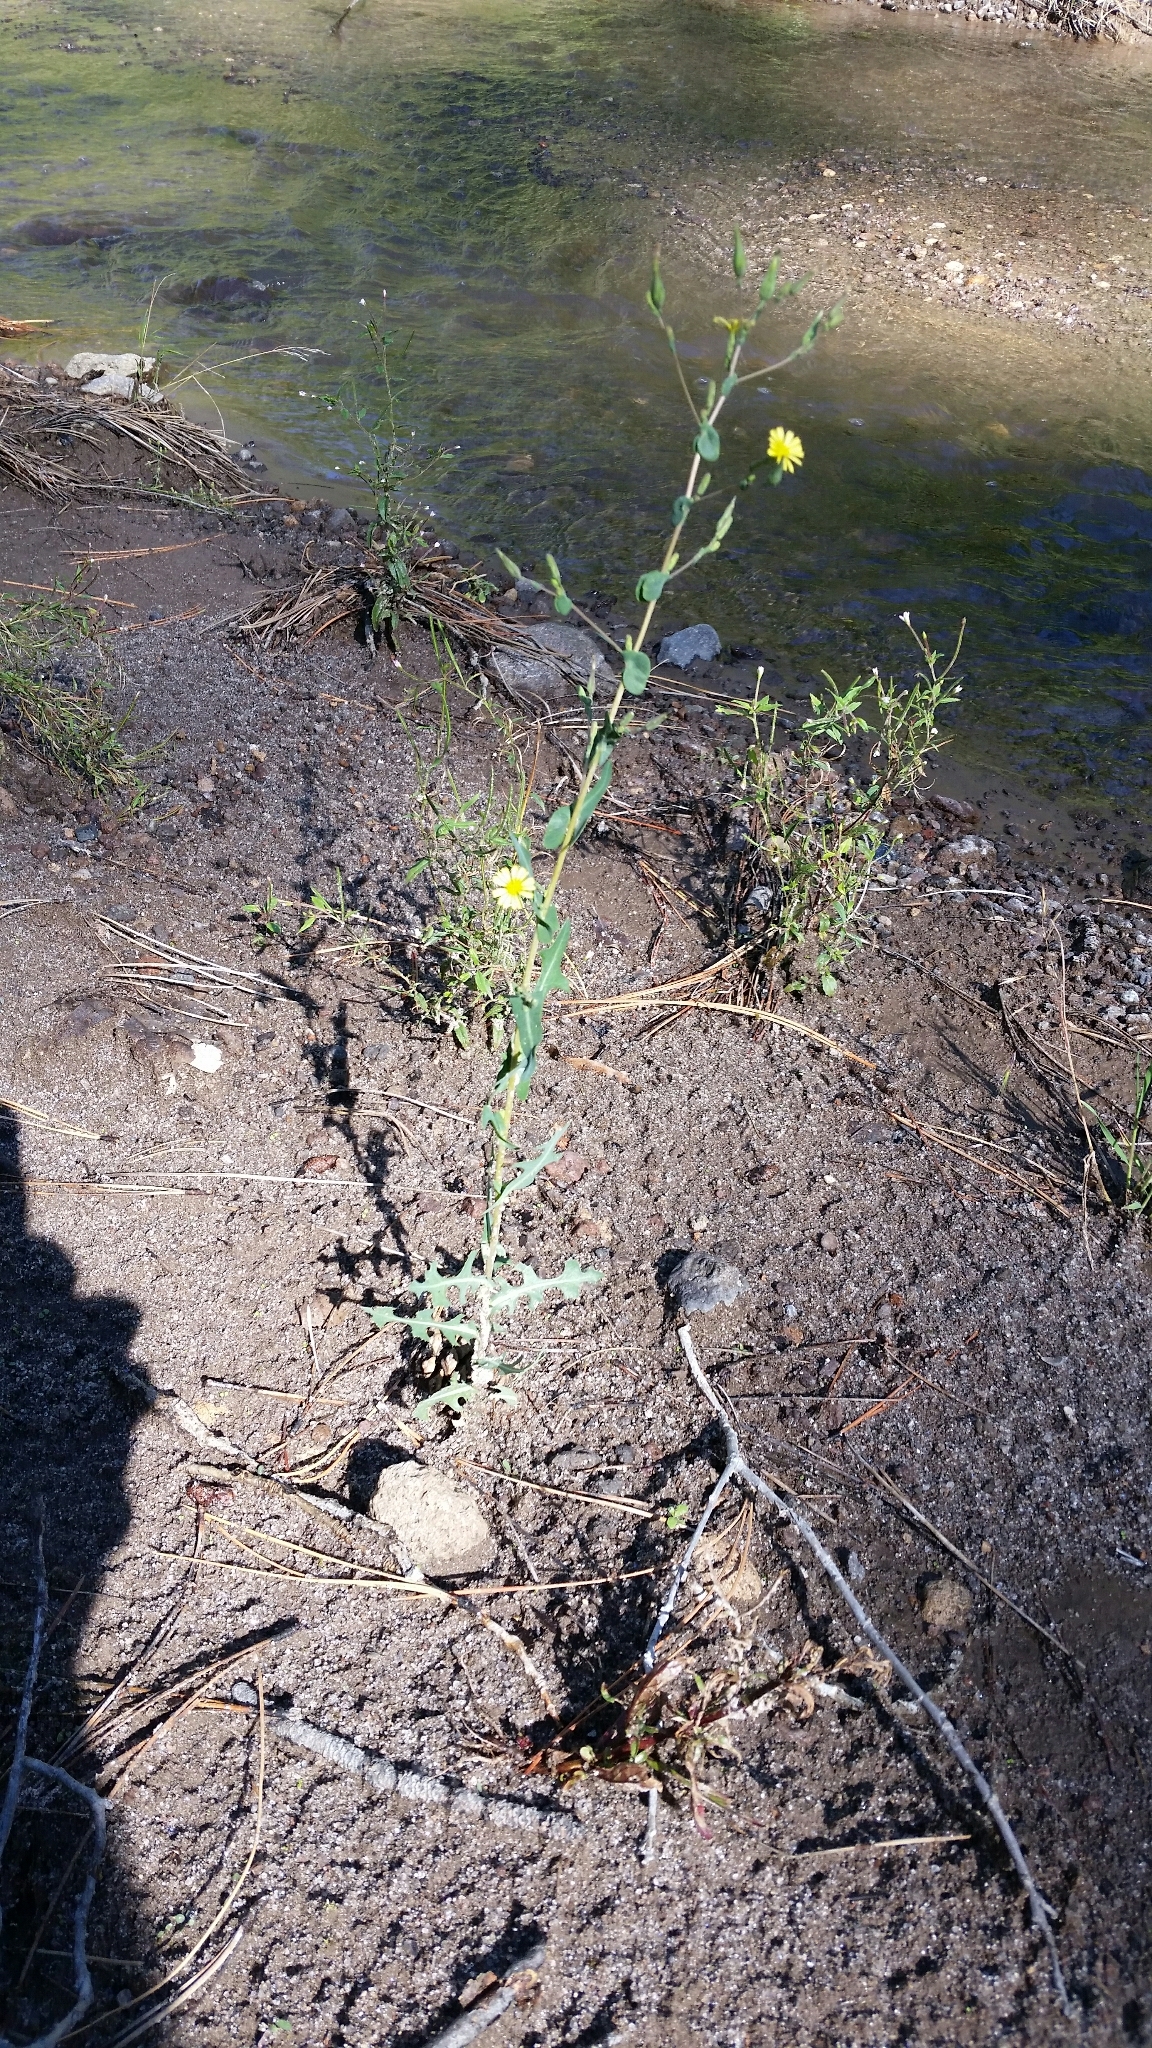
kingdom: Plantae
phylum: Tracheophyta
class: Magnoliopsida
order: Asterales
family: Asteraceae
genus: Lactuca
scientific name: Lactuca serriola
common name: Prickly lettuce
